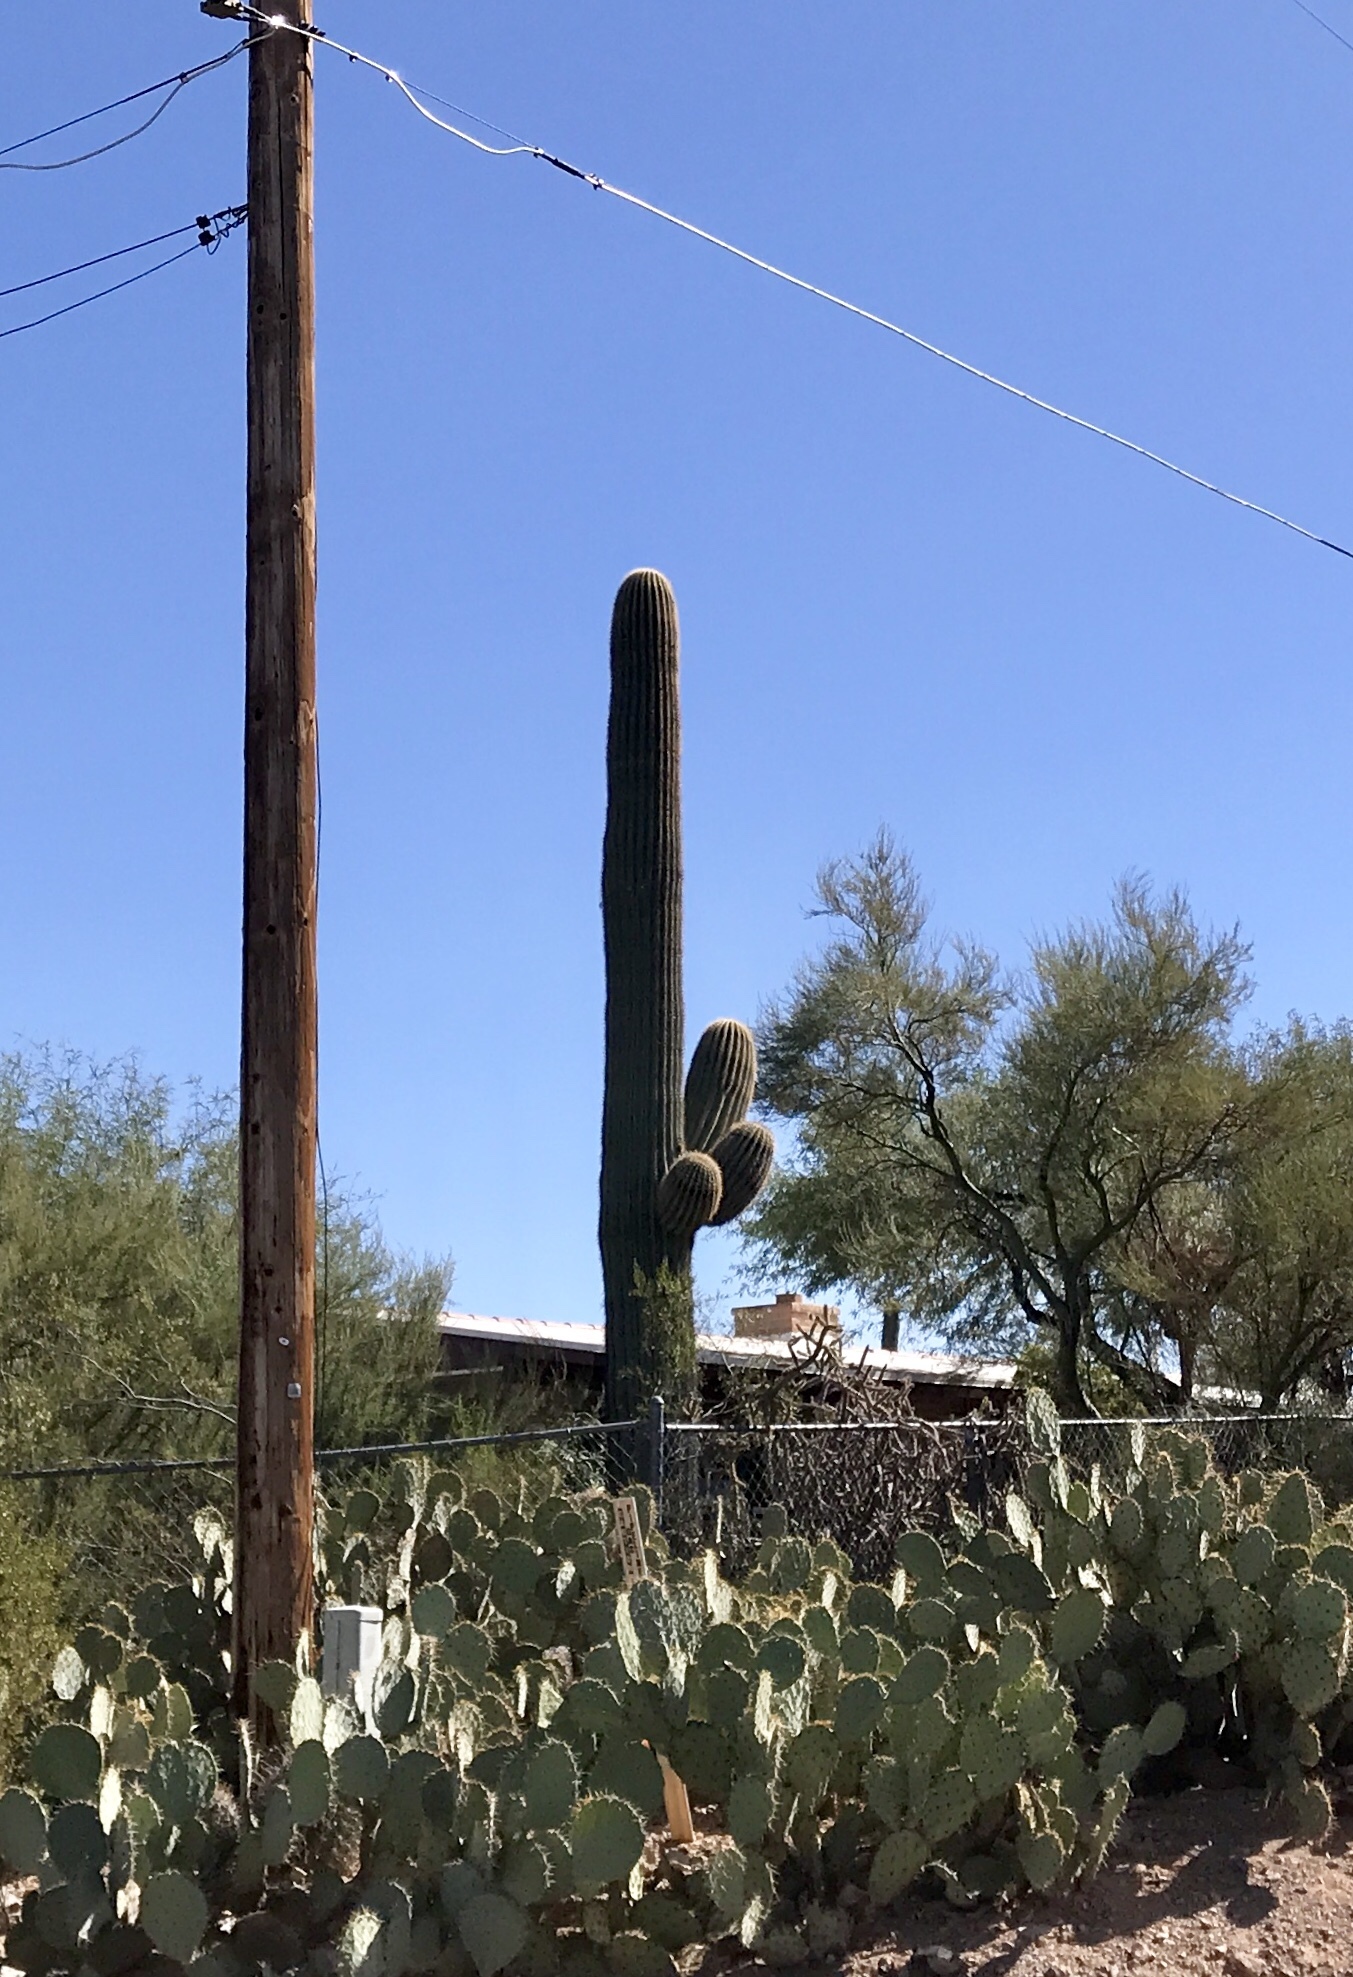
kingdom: Plantae
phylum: Tracheophyta
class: Magnoliopsida
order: Caryophyllales
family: Cactaceae
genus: Carnegiea
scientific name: Carnegiea gigantea
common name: Saguaro
